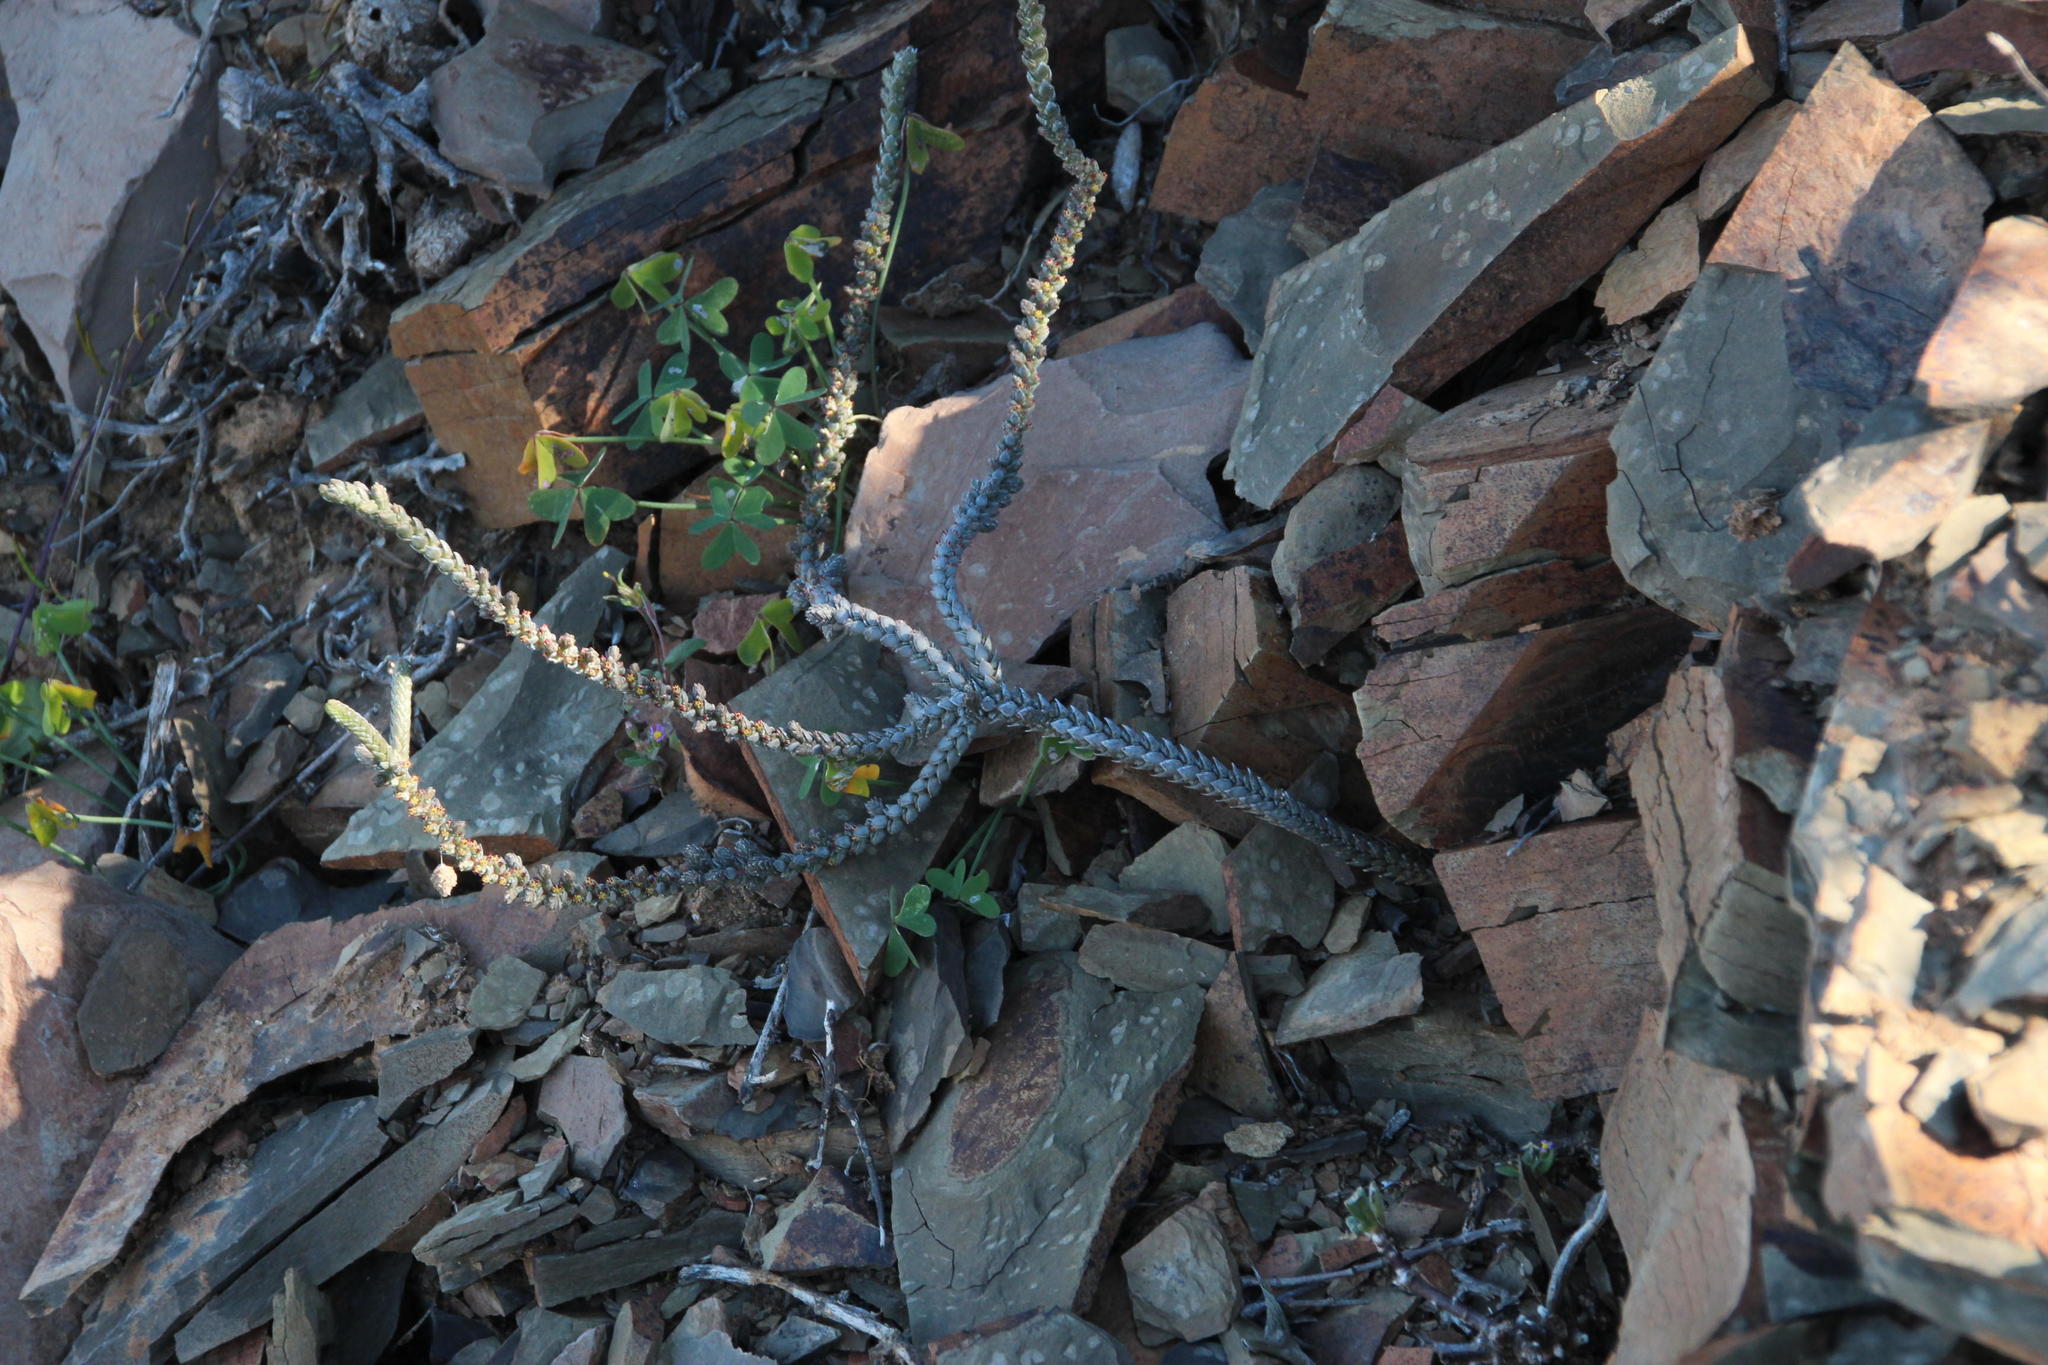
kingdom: Plantae
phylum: Tracheophyta
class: Magnoliopsida
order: Saxifragales
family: Crassulaceae
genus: Crassula
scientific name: Crassula muscosa
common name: Toy-cypress
